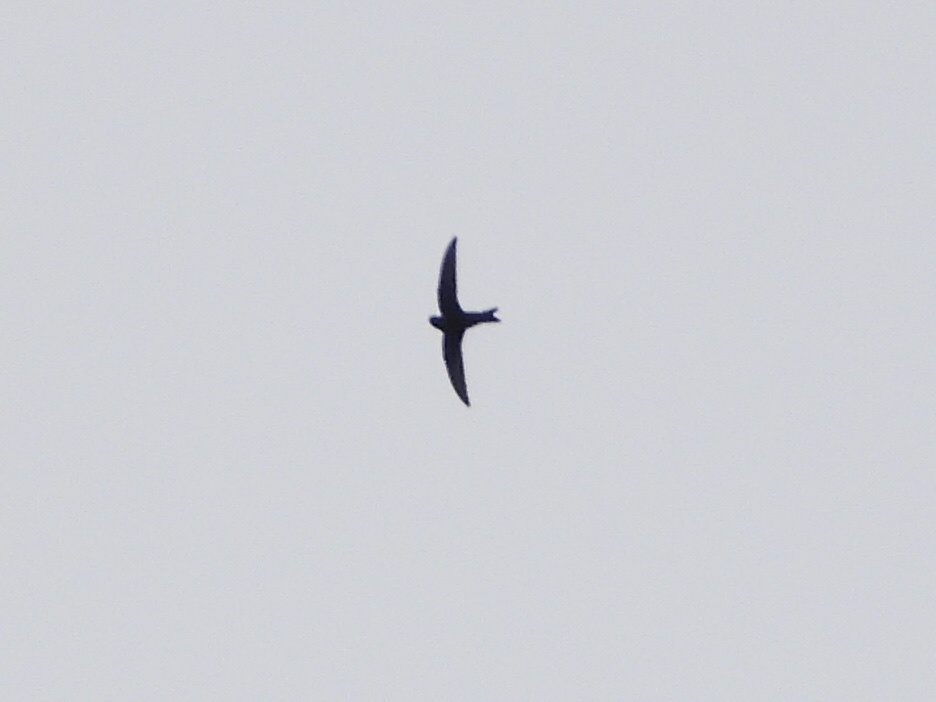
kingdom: Animalia
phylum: Chordata
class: Aves
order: Apodiformes
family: Apodidae
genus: Cypseloides
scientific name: Cypseloides niger
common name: Black swift
